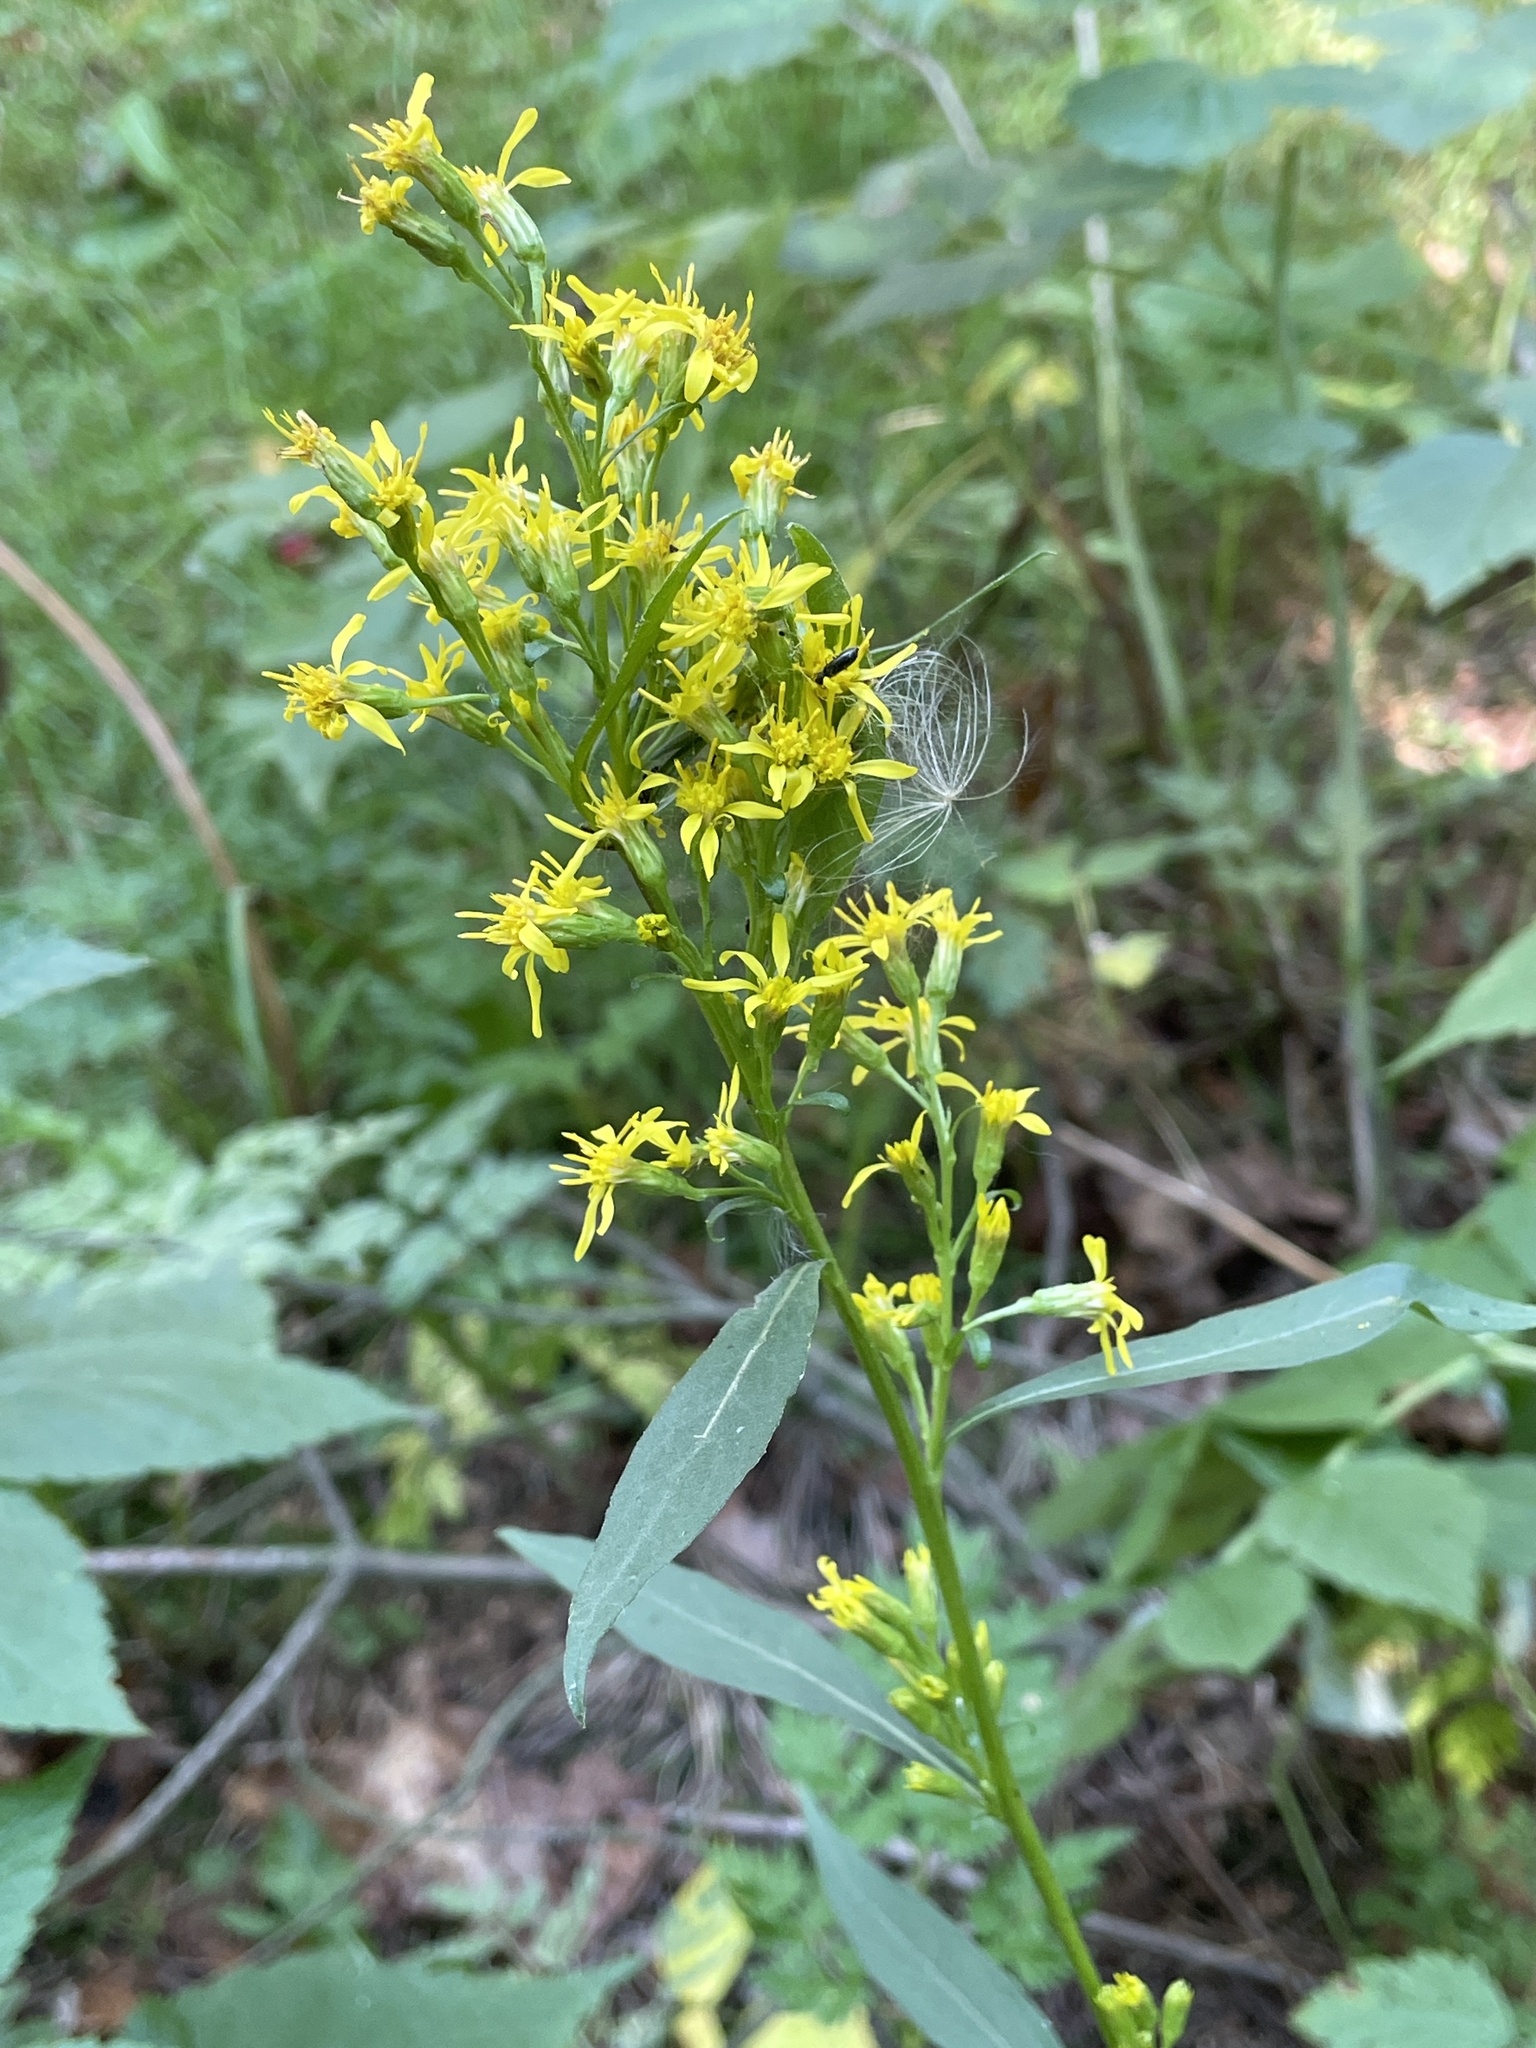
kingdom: Plantae
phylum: Tracheophyta
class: Magnoliopsida
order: Asterales
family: Asteraceae
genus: Solidago
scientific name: Solidago virgaurea
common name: Goldenrod
